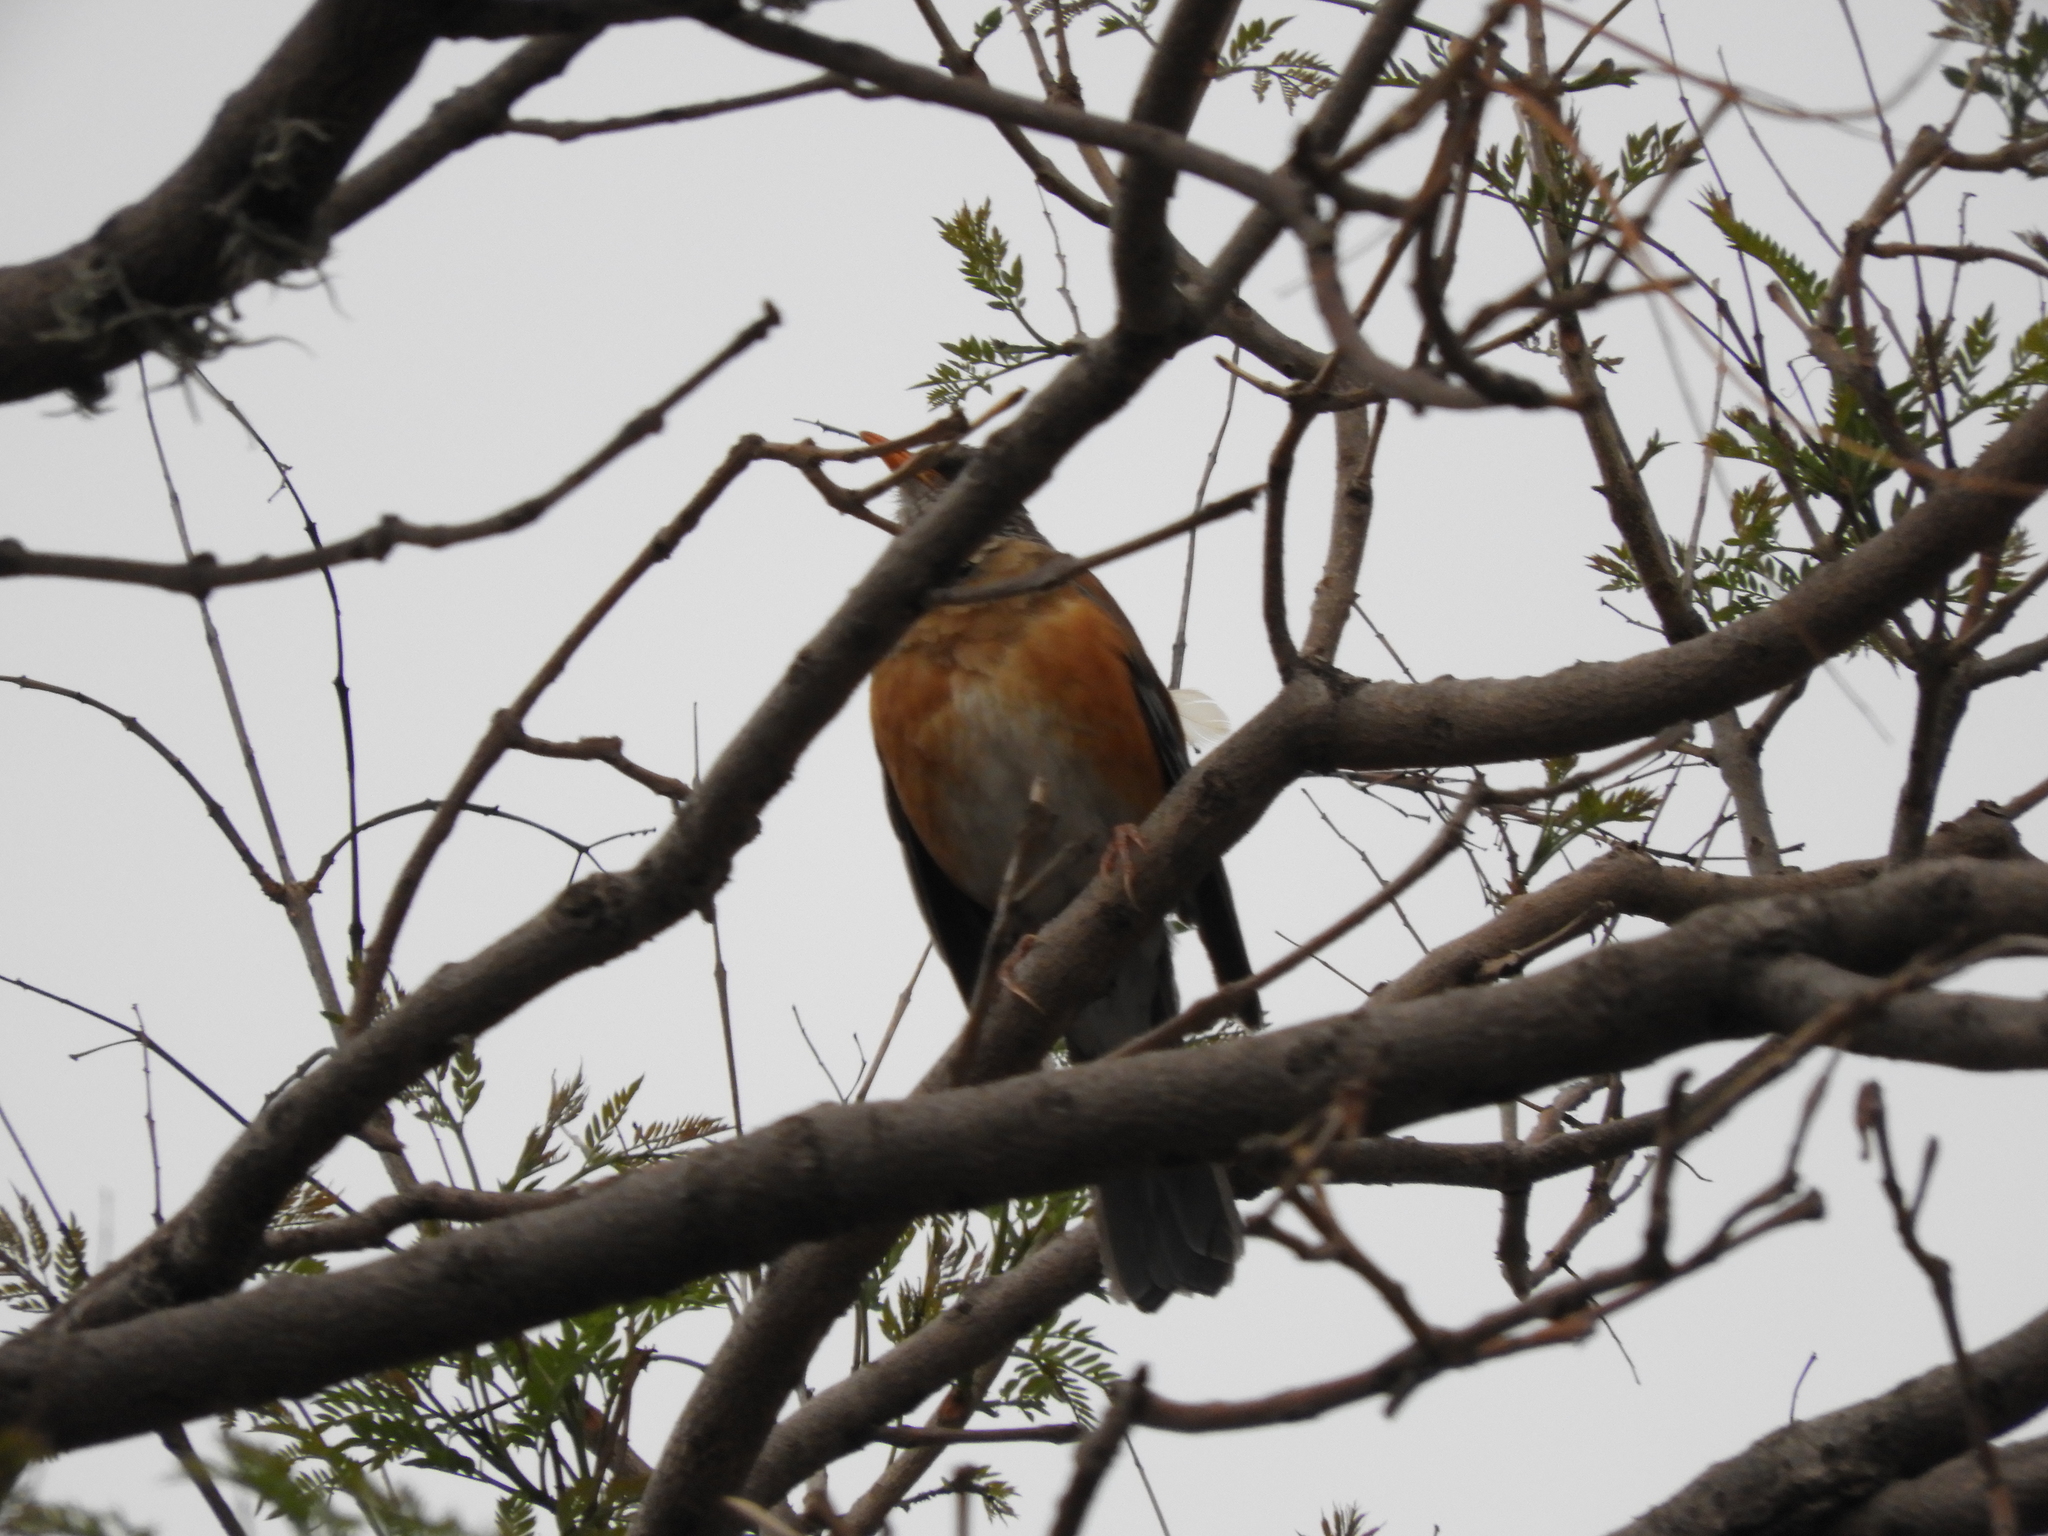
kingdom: Animalia
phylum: Chordata
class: Aves
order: Passeriformes
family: Turdidae
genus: Turdus
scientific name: Turdus rufopalliatus
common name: Rufous-backed robin
